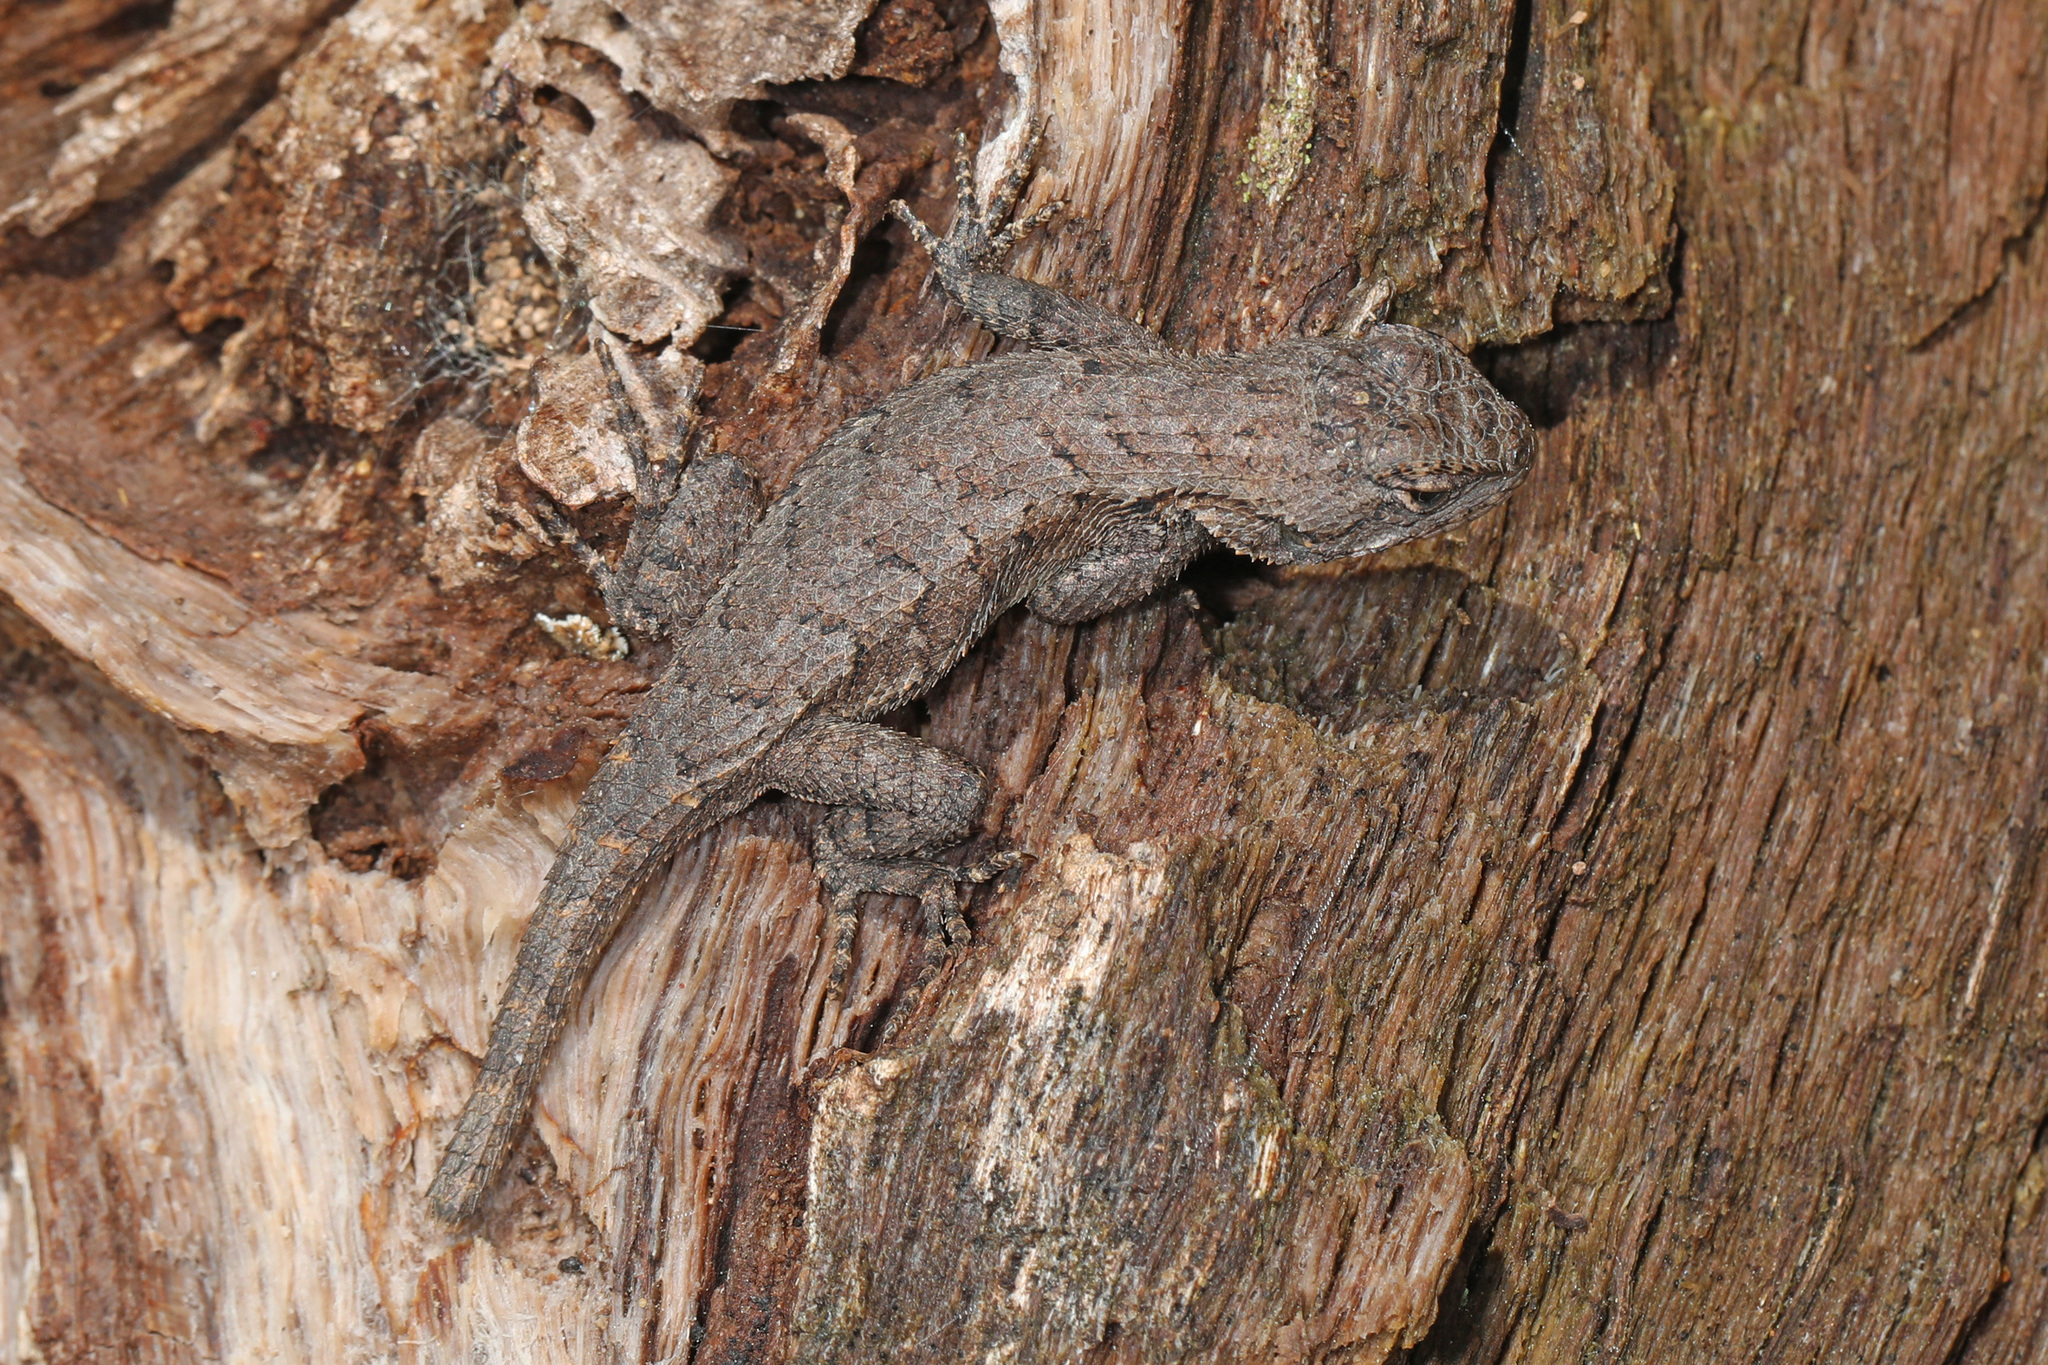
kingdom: Animalia
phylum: Chordata
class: Squamata
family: Phrynosomatidae
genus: Sceloporus
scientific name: Sceloporus undulatus
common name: Eastern fence lizard
